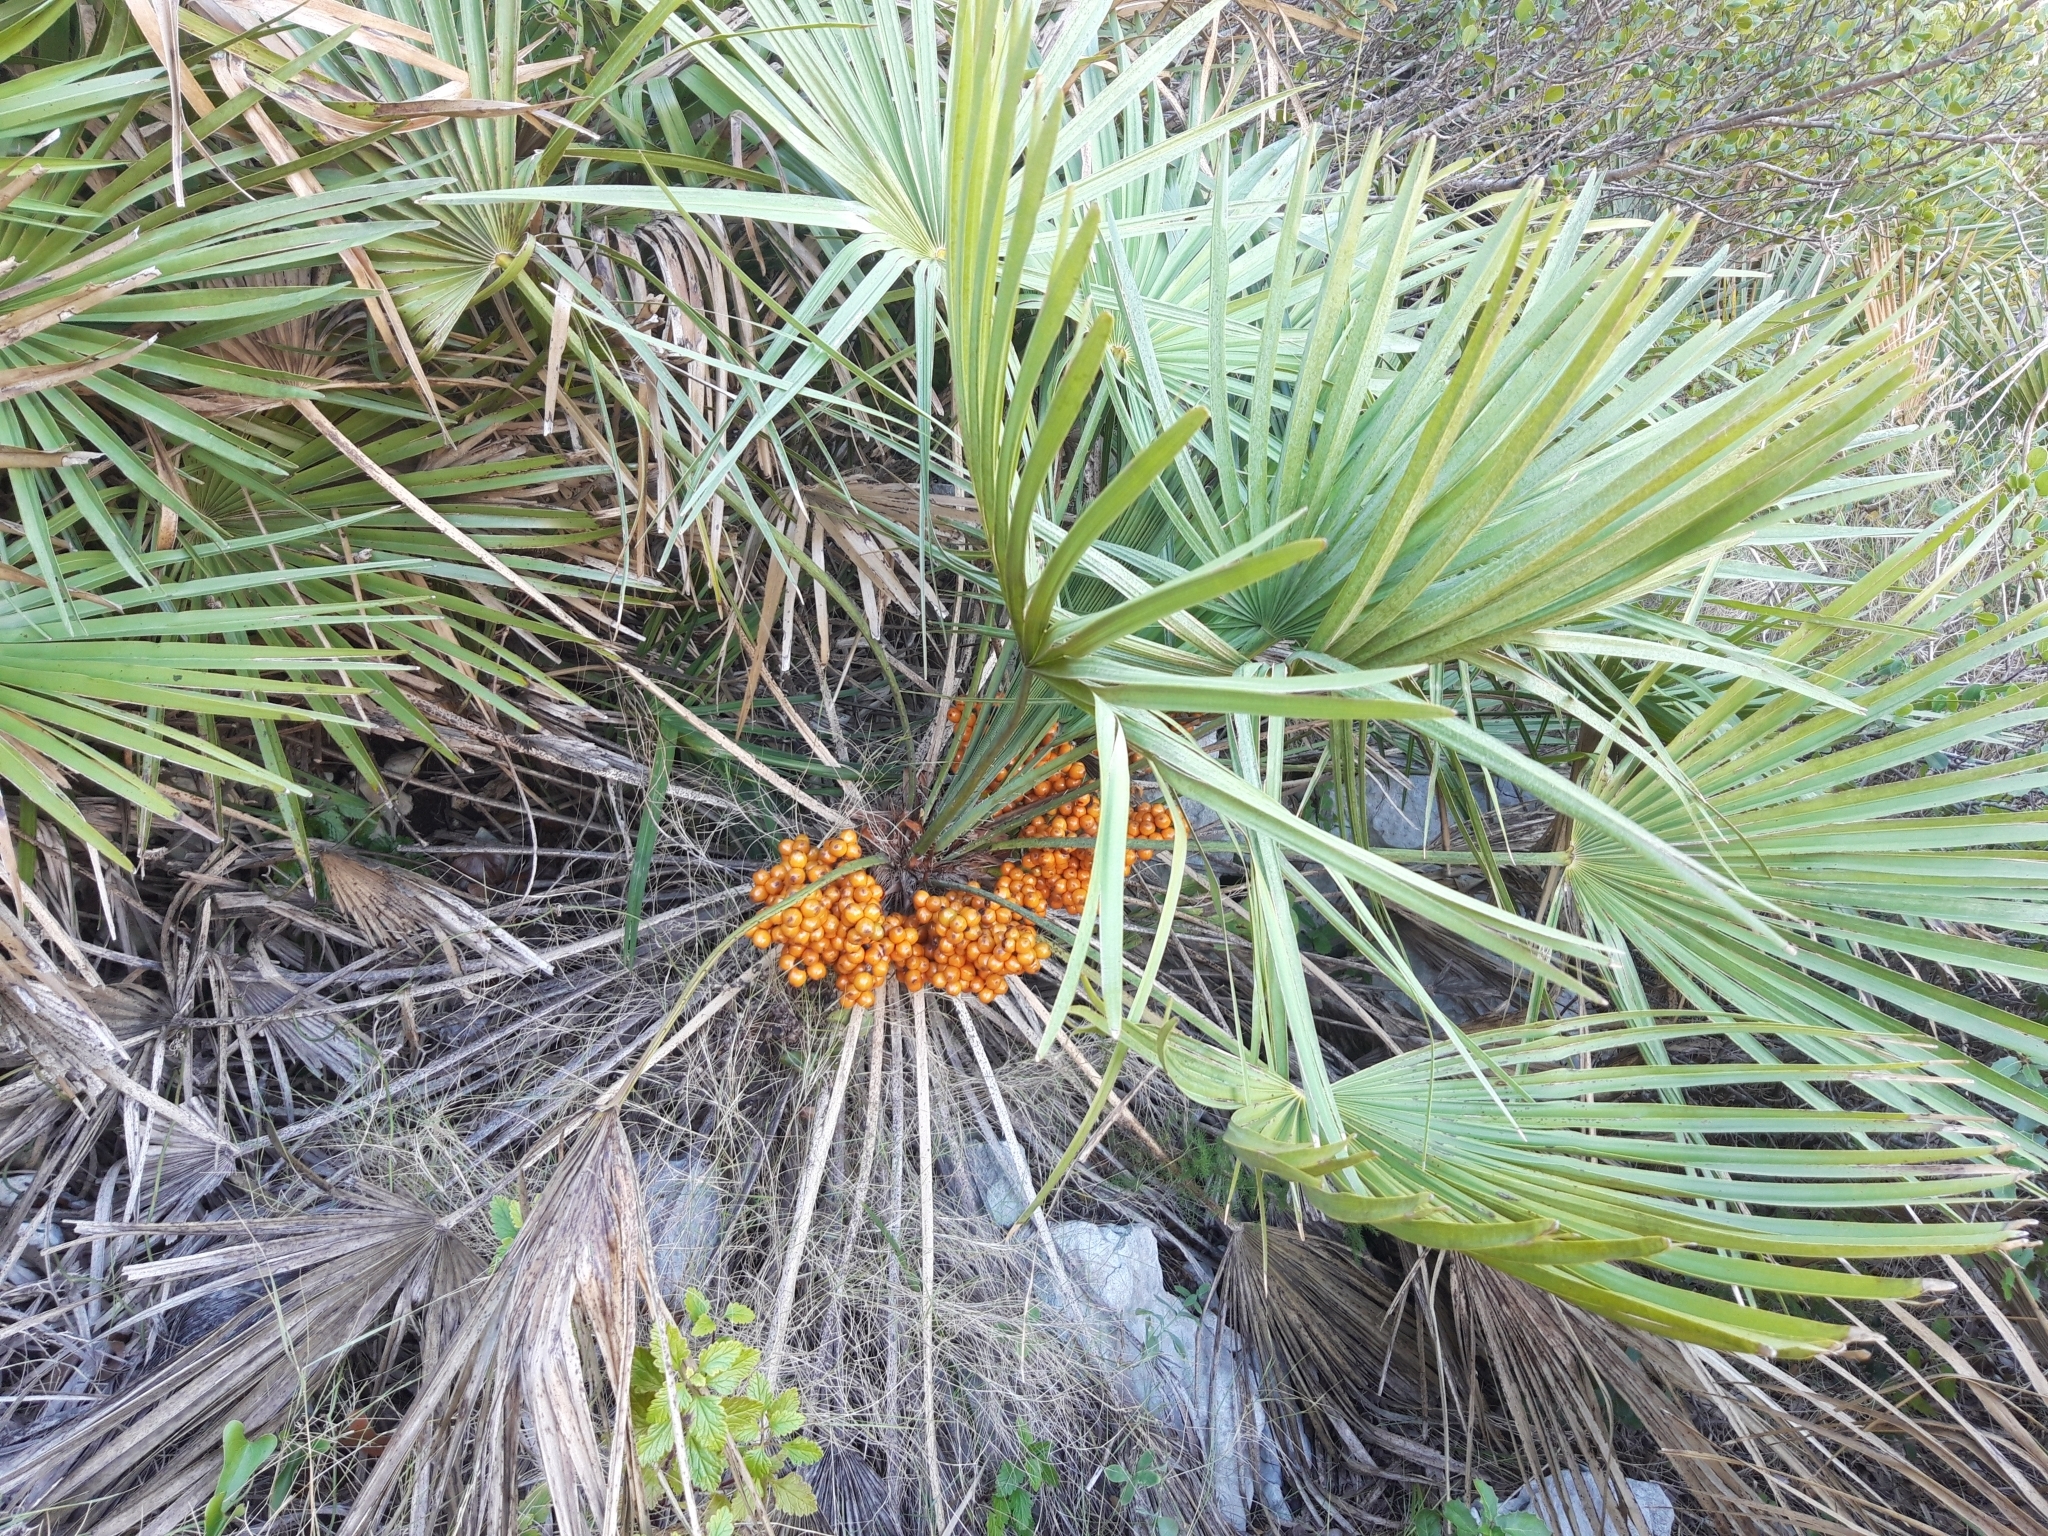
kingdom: Plantae
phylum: Tracheophyta
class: Liliopsida
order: Arecales
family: Arecaceae
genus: Chamaerops
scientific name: Chamaerops humilis
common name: Dwarf fan palm
